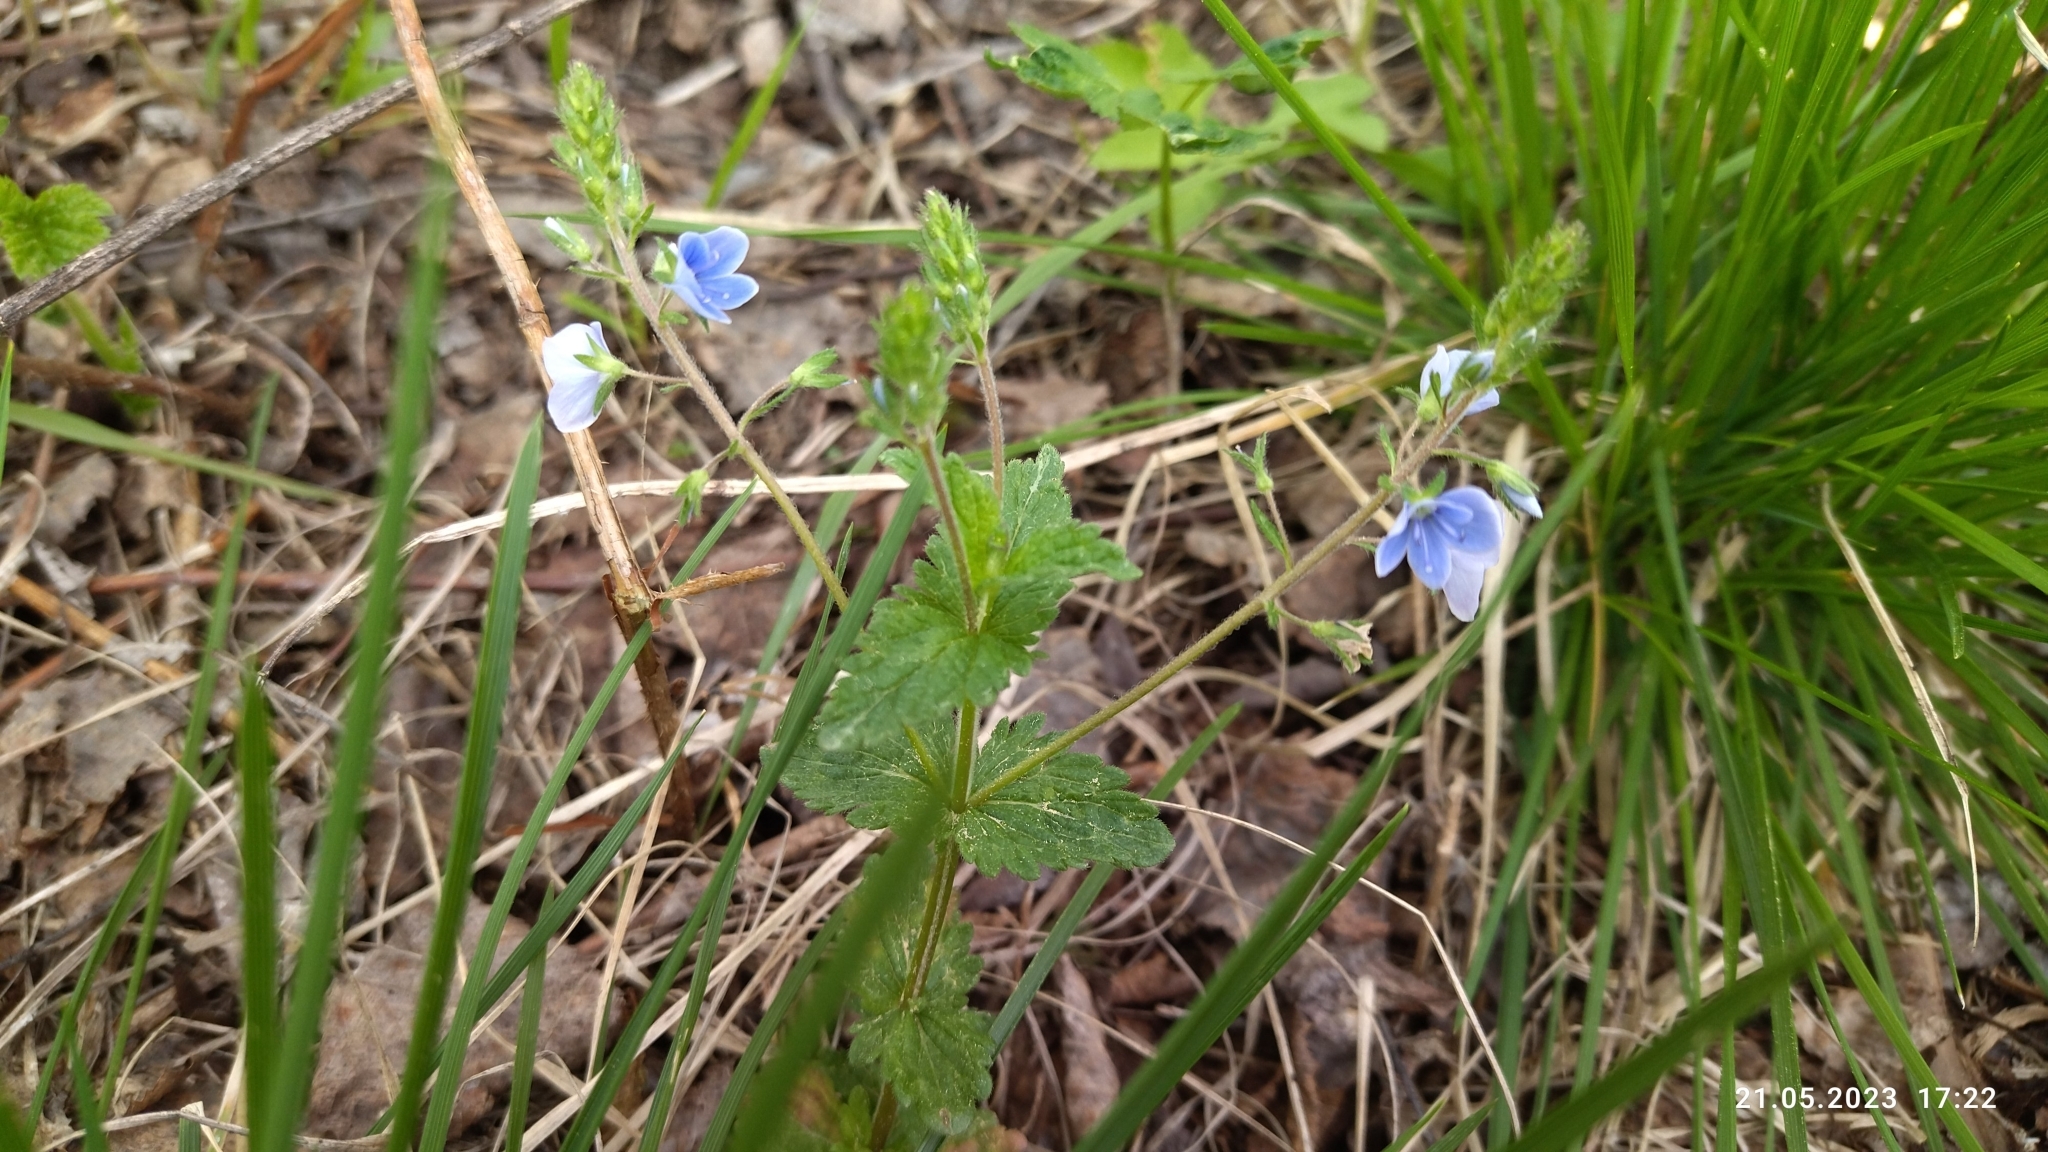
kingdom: Plantae
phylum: Tracheophyta
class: Magnoliopsida
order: Lamiales
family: Plantaginaceae
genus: Veronica
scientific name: Veronica chamaedrys
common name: Germander speedwell
